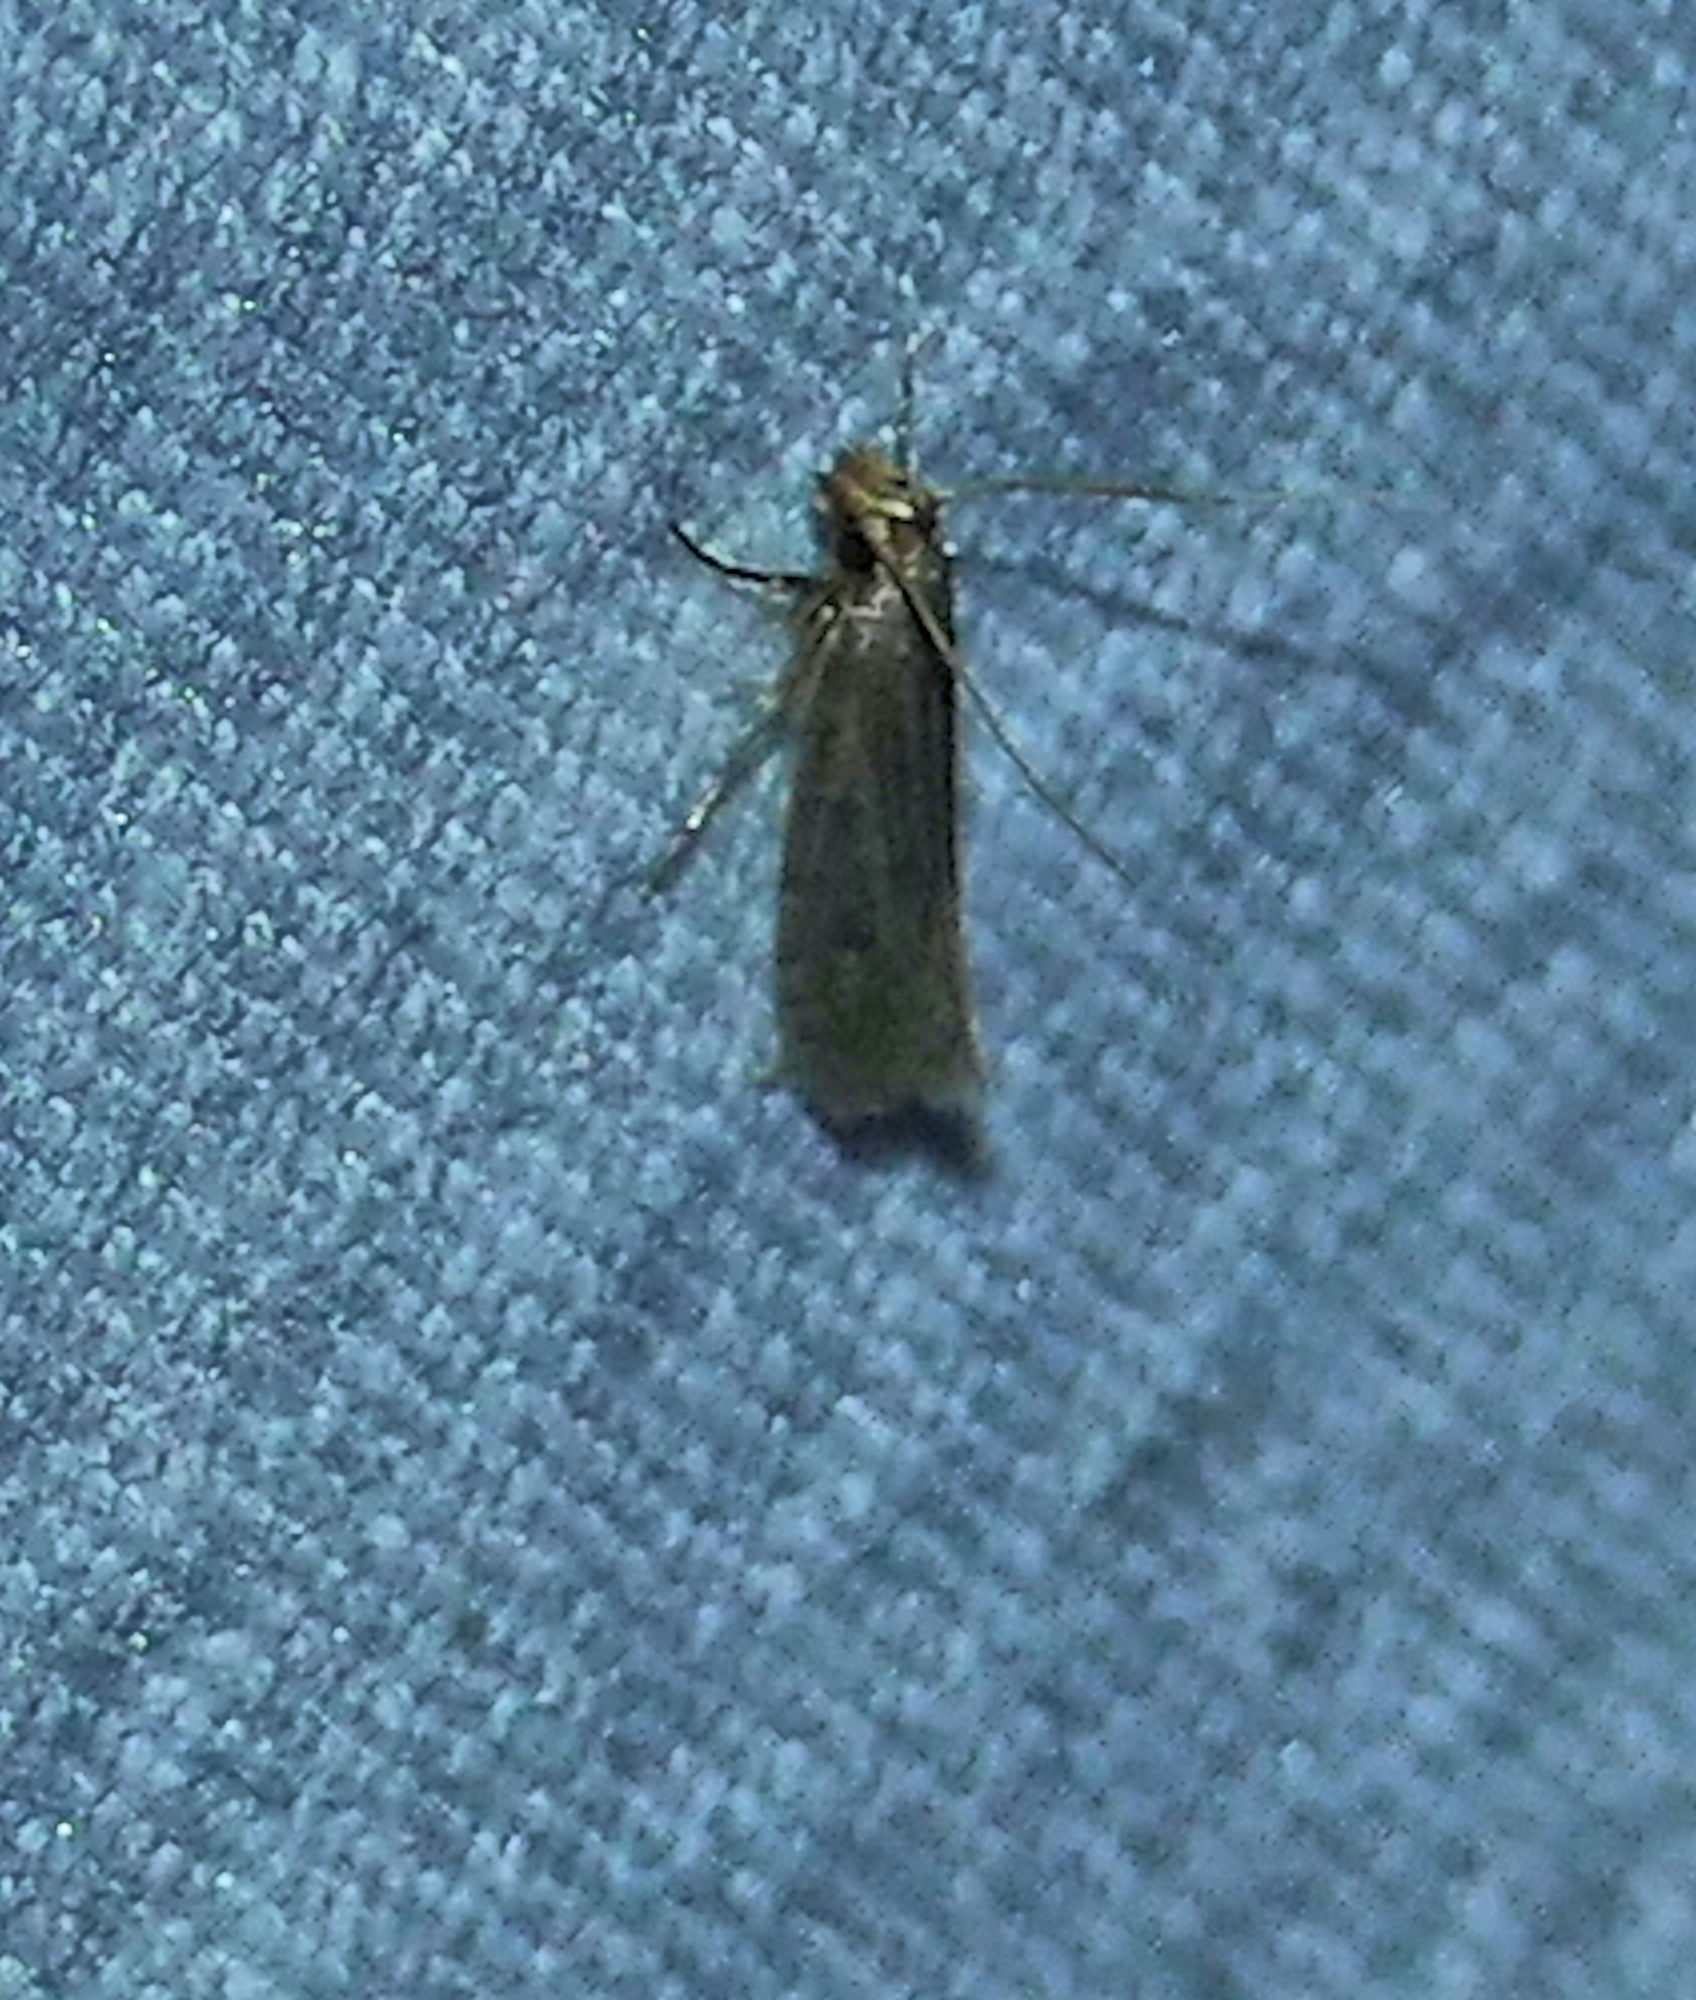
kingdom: Animalia
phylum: Arthropoda
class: Insecta
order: Lepidoptera
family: Tineidae
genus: Amydria
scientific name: Amydria effrentella
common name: Brown-blotched amydria moth
